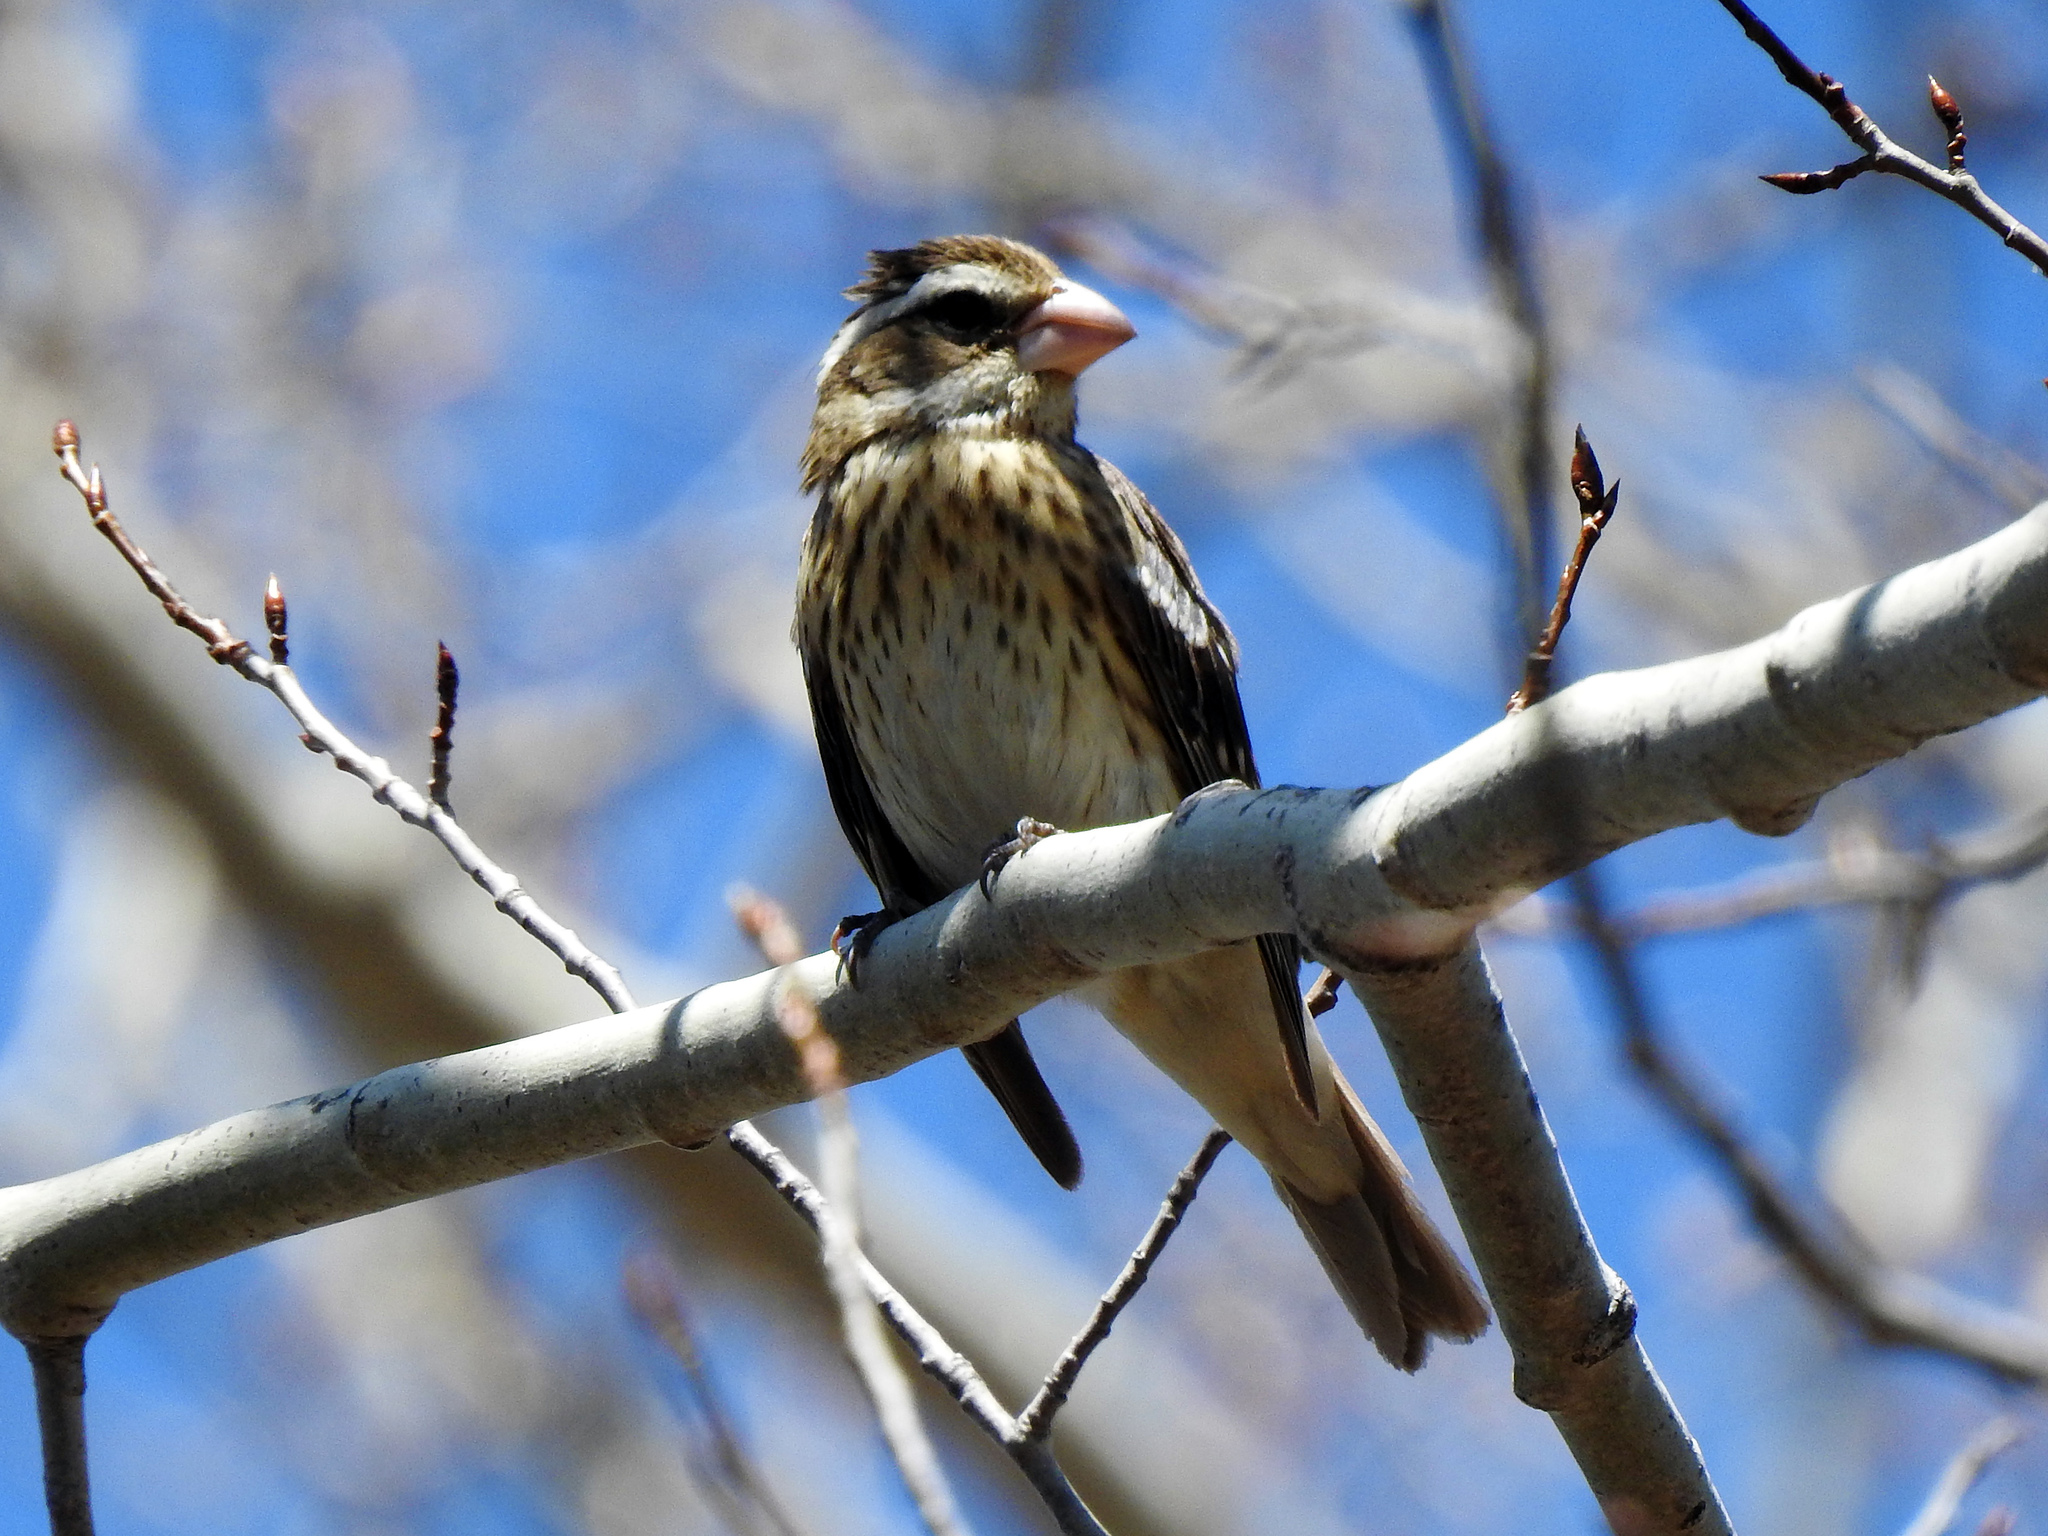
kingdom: Animalia
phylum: Chordata
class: Aves
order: Passeriformes
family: Cardinalidae
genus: Pheucticus
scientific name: Pheucticus ludovicianus
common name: Rose-breasted grosbeak
